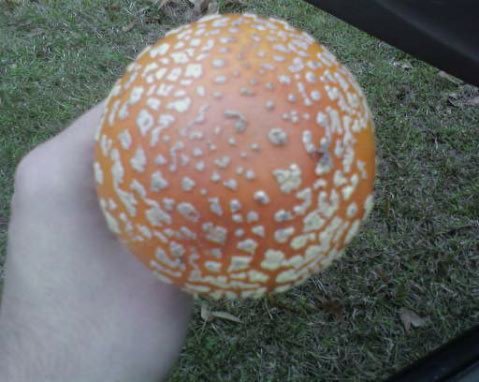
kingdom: Fungi
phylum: Basidiomycota
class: Agaricomycetes
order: Agaricales
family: Amanitaceae
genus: Amanita
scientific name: Amanita persicina
